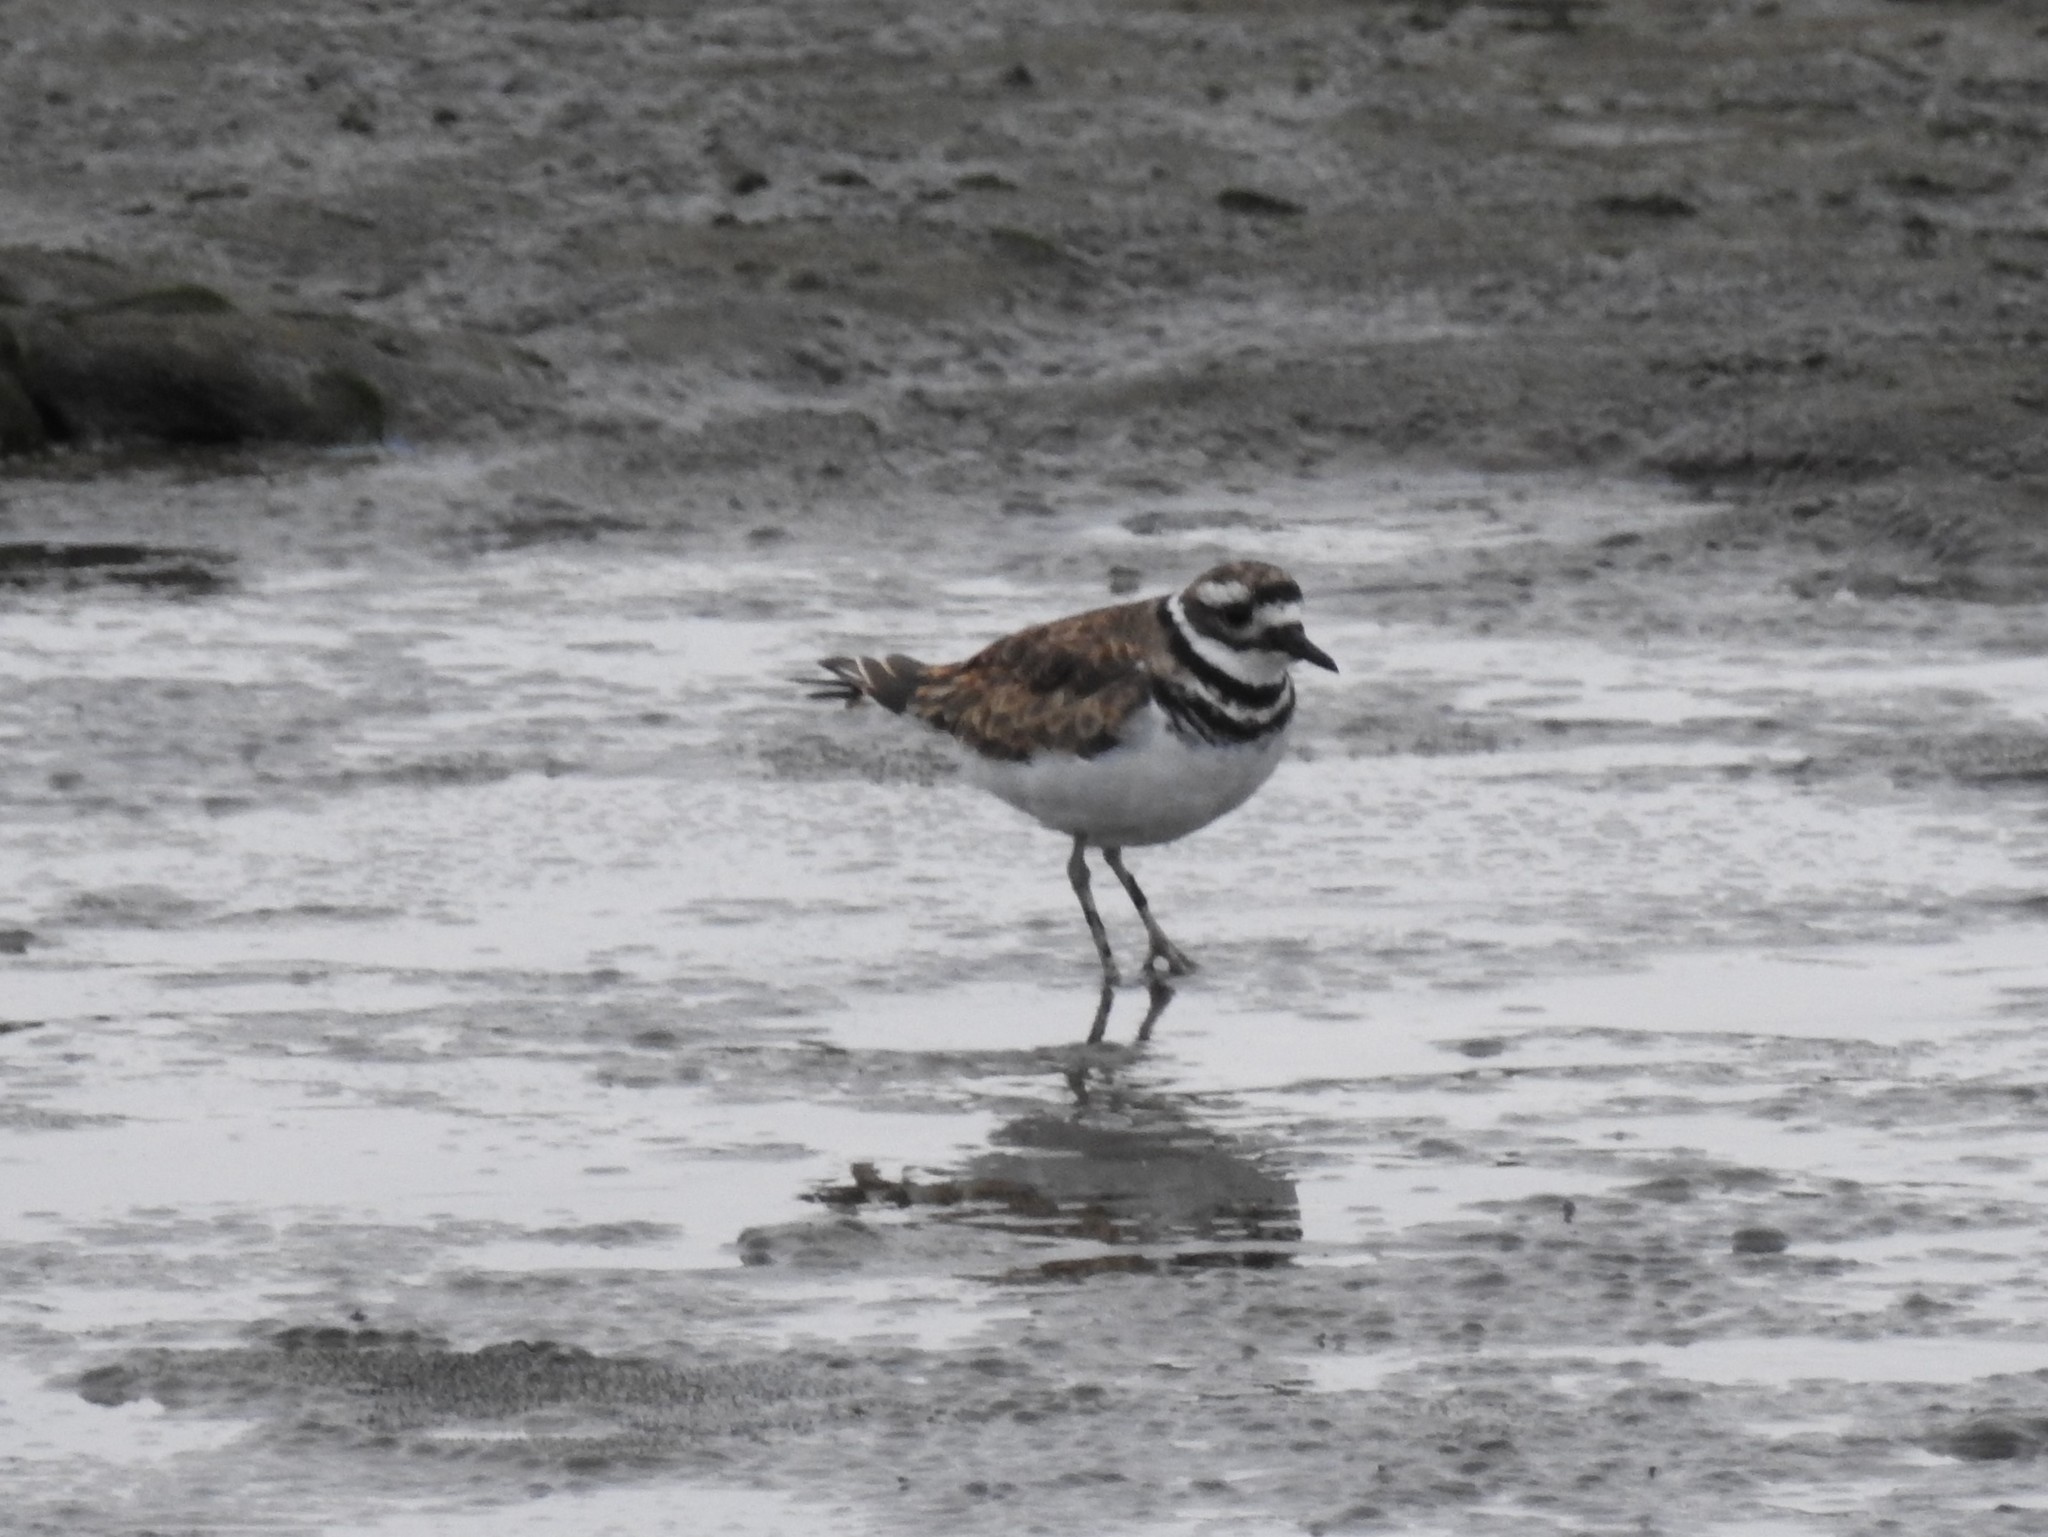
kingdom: Animalia
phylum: Chordata
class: Aves
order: Charadriiformes
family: Charadriidae
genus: Charadrius
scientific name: Charadrius vociferus
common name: Killdeer
